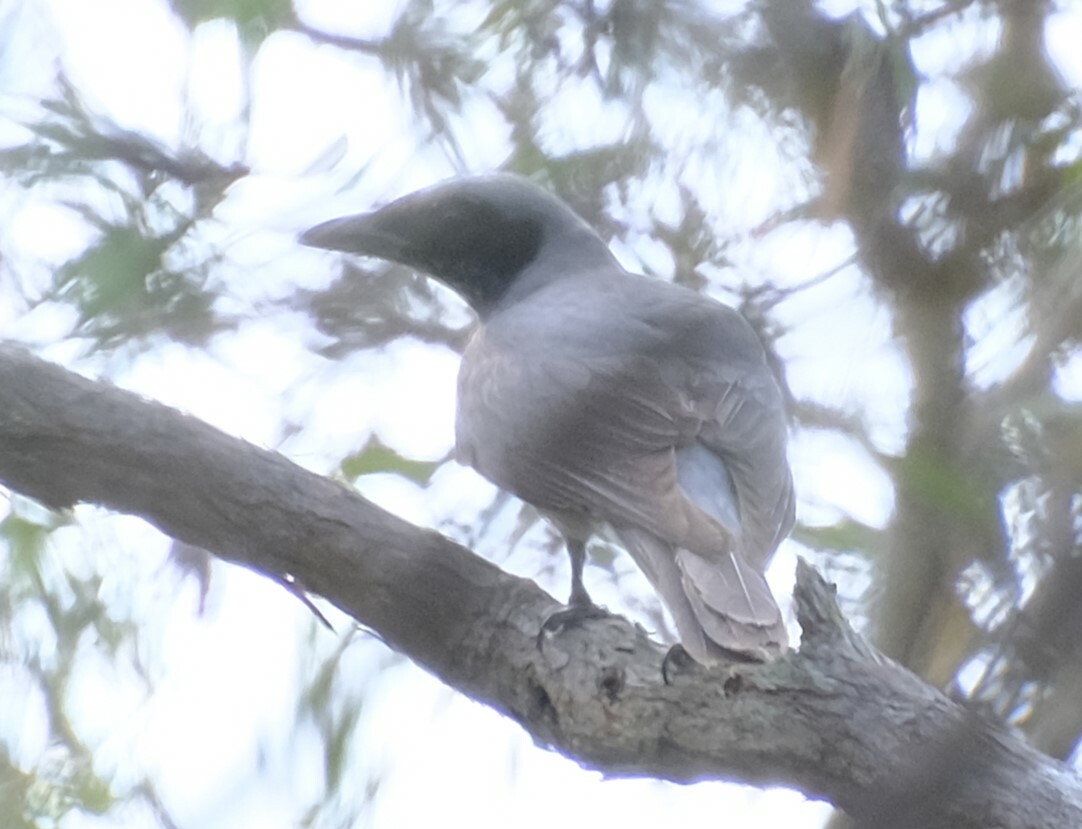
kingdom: Animalia
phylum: Chordata
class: Aves
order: Passeriformes
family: Campephagidae
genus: Coracina
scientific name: Coracina novaehollandiae
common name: Black-faced cuckooshrike
